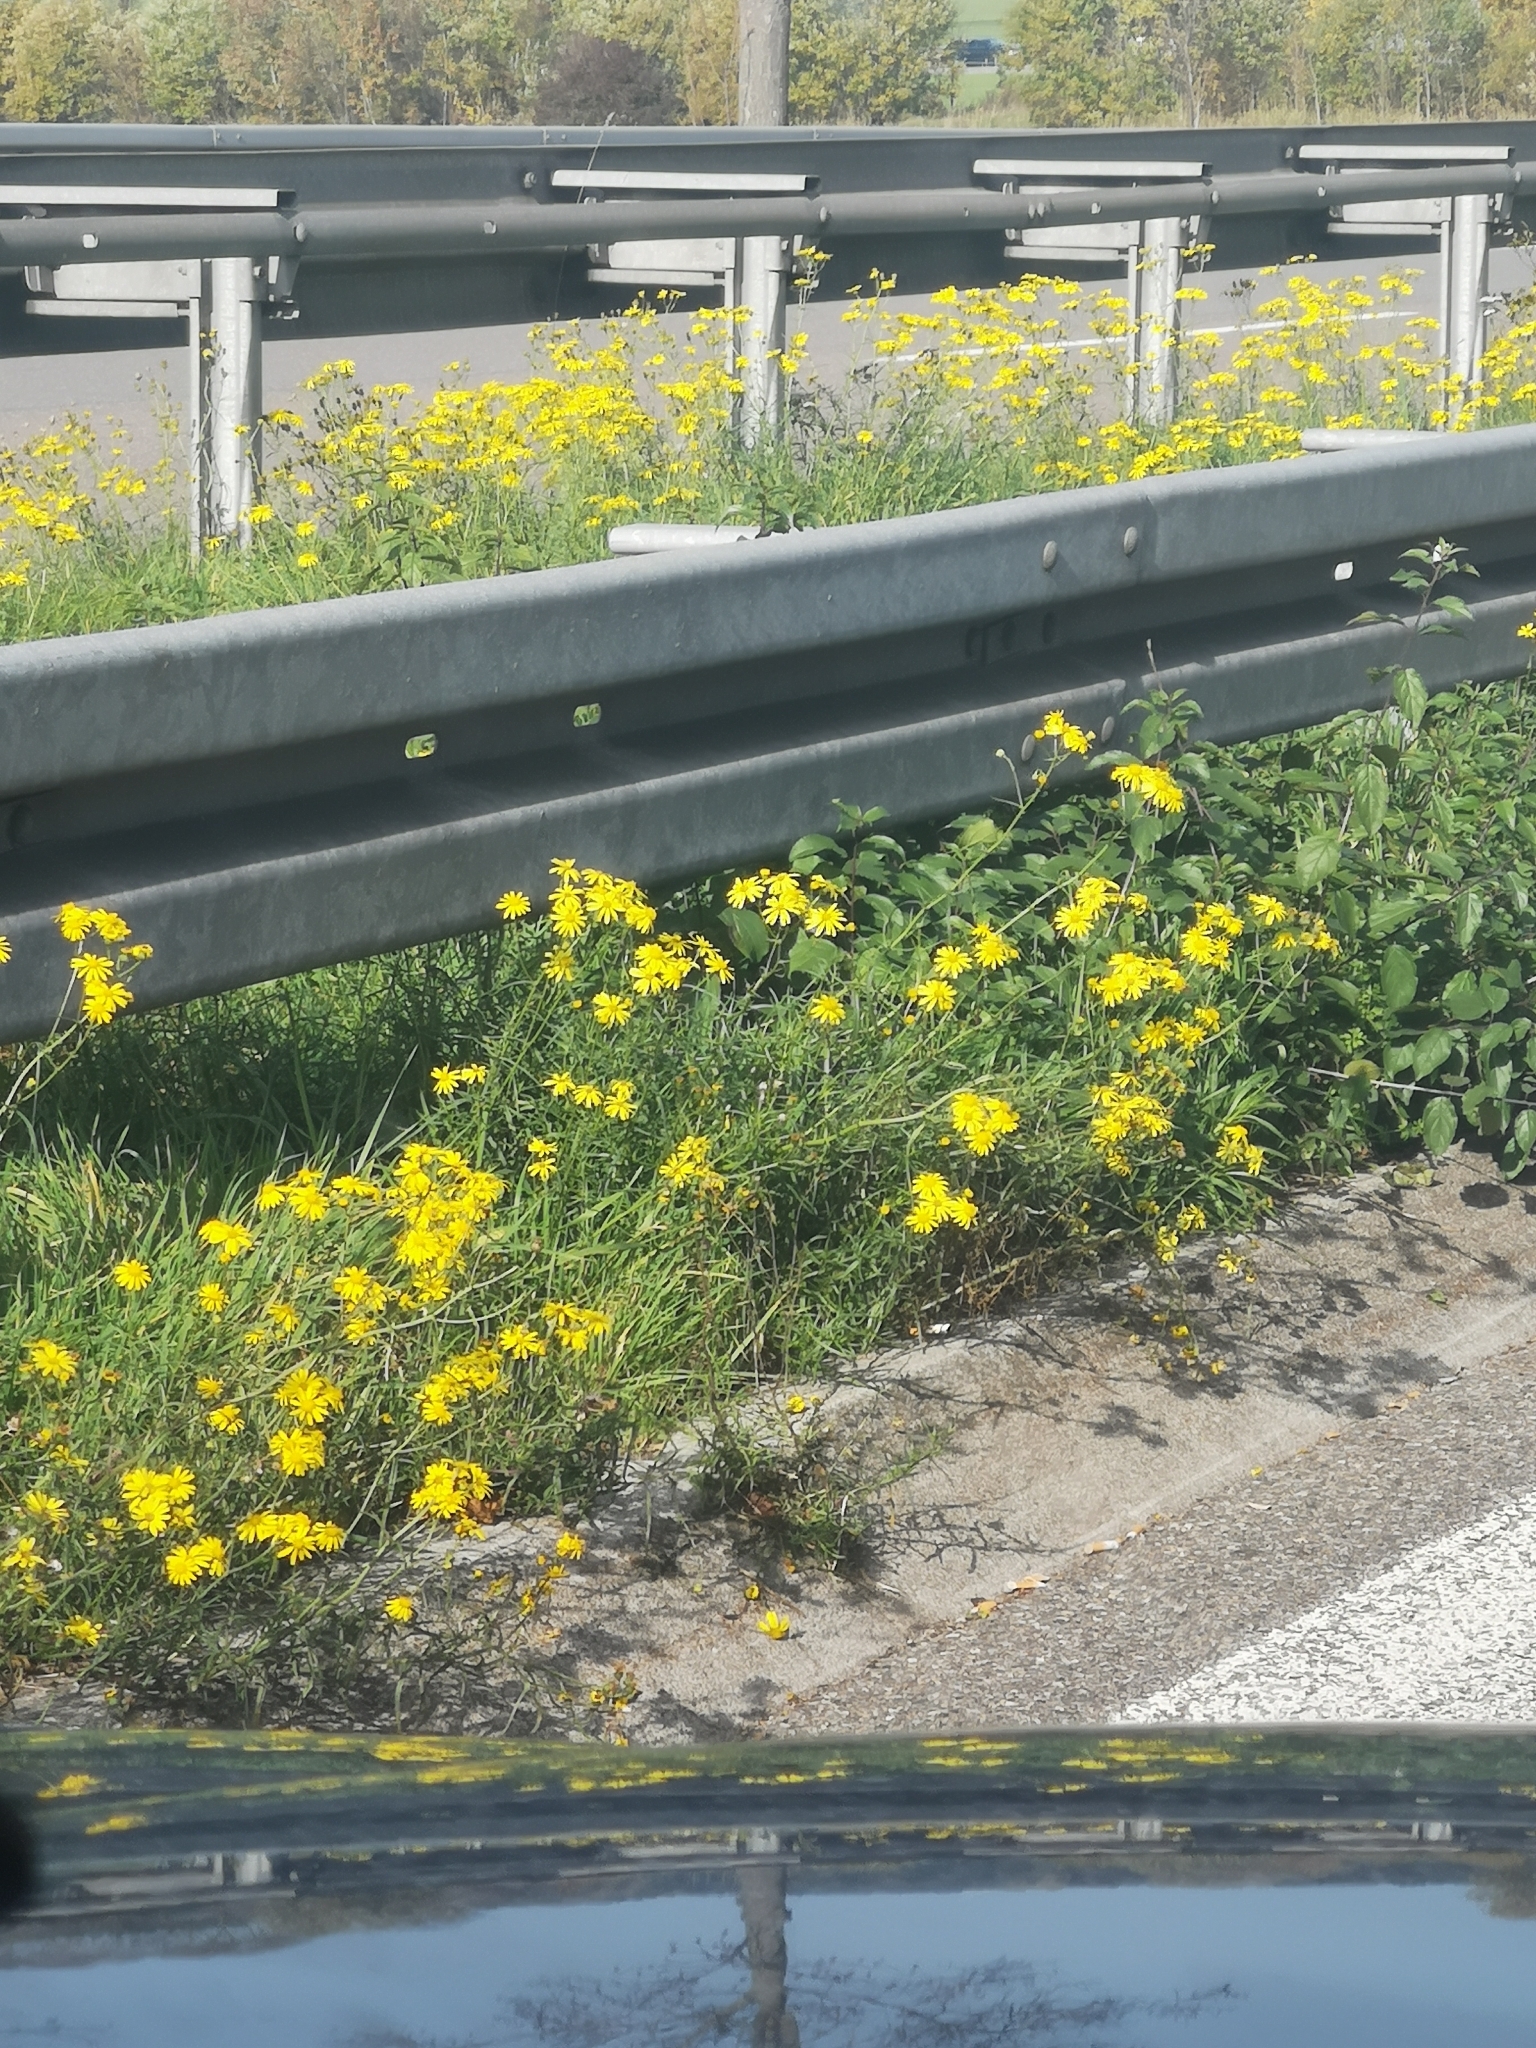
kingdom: Plantae
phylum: Tracheophyta
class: Magnoliopsida
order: Asterales
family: Asteraceae
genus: Senecio
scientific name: Senecio inaequidens
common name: Narrow-leaved ragwort
